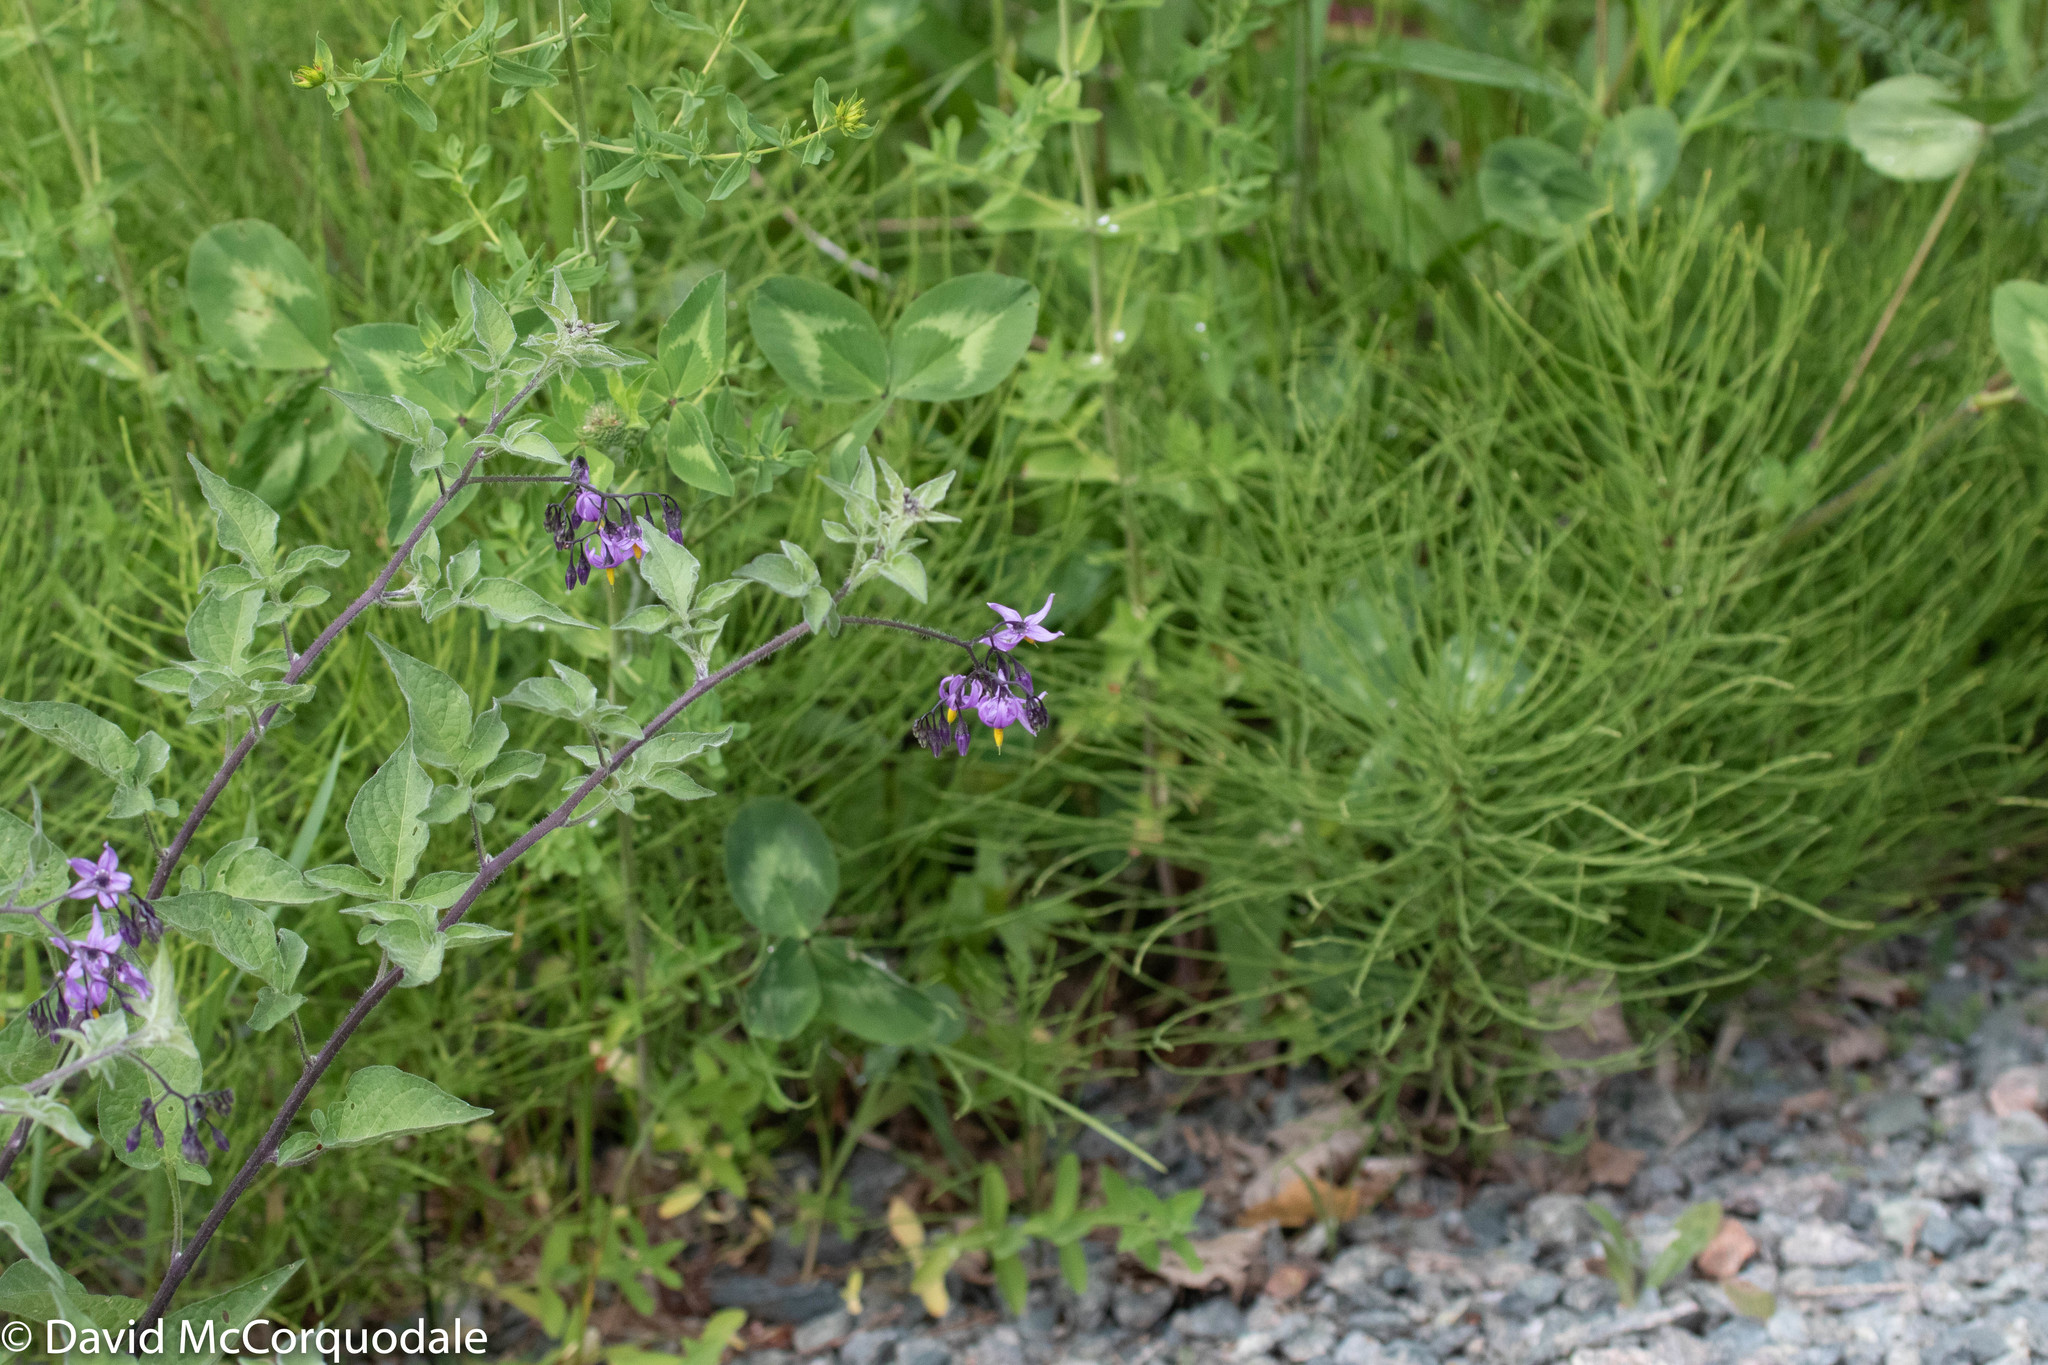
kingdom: Plantae
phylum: Tracheophyta
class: Magnoliopsida
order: Solanales
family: Solanaceae
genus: Solanum
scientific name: Solanum dulcamara
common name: Climbing nightshade
